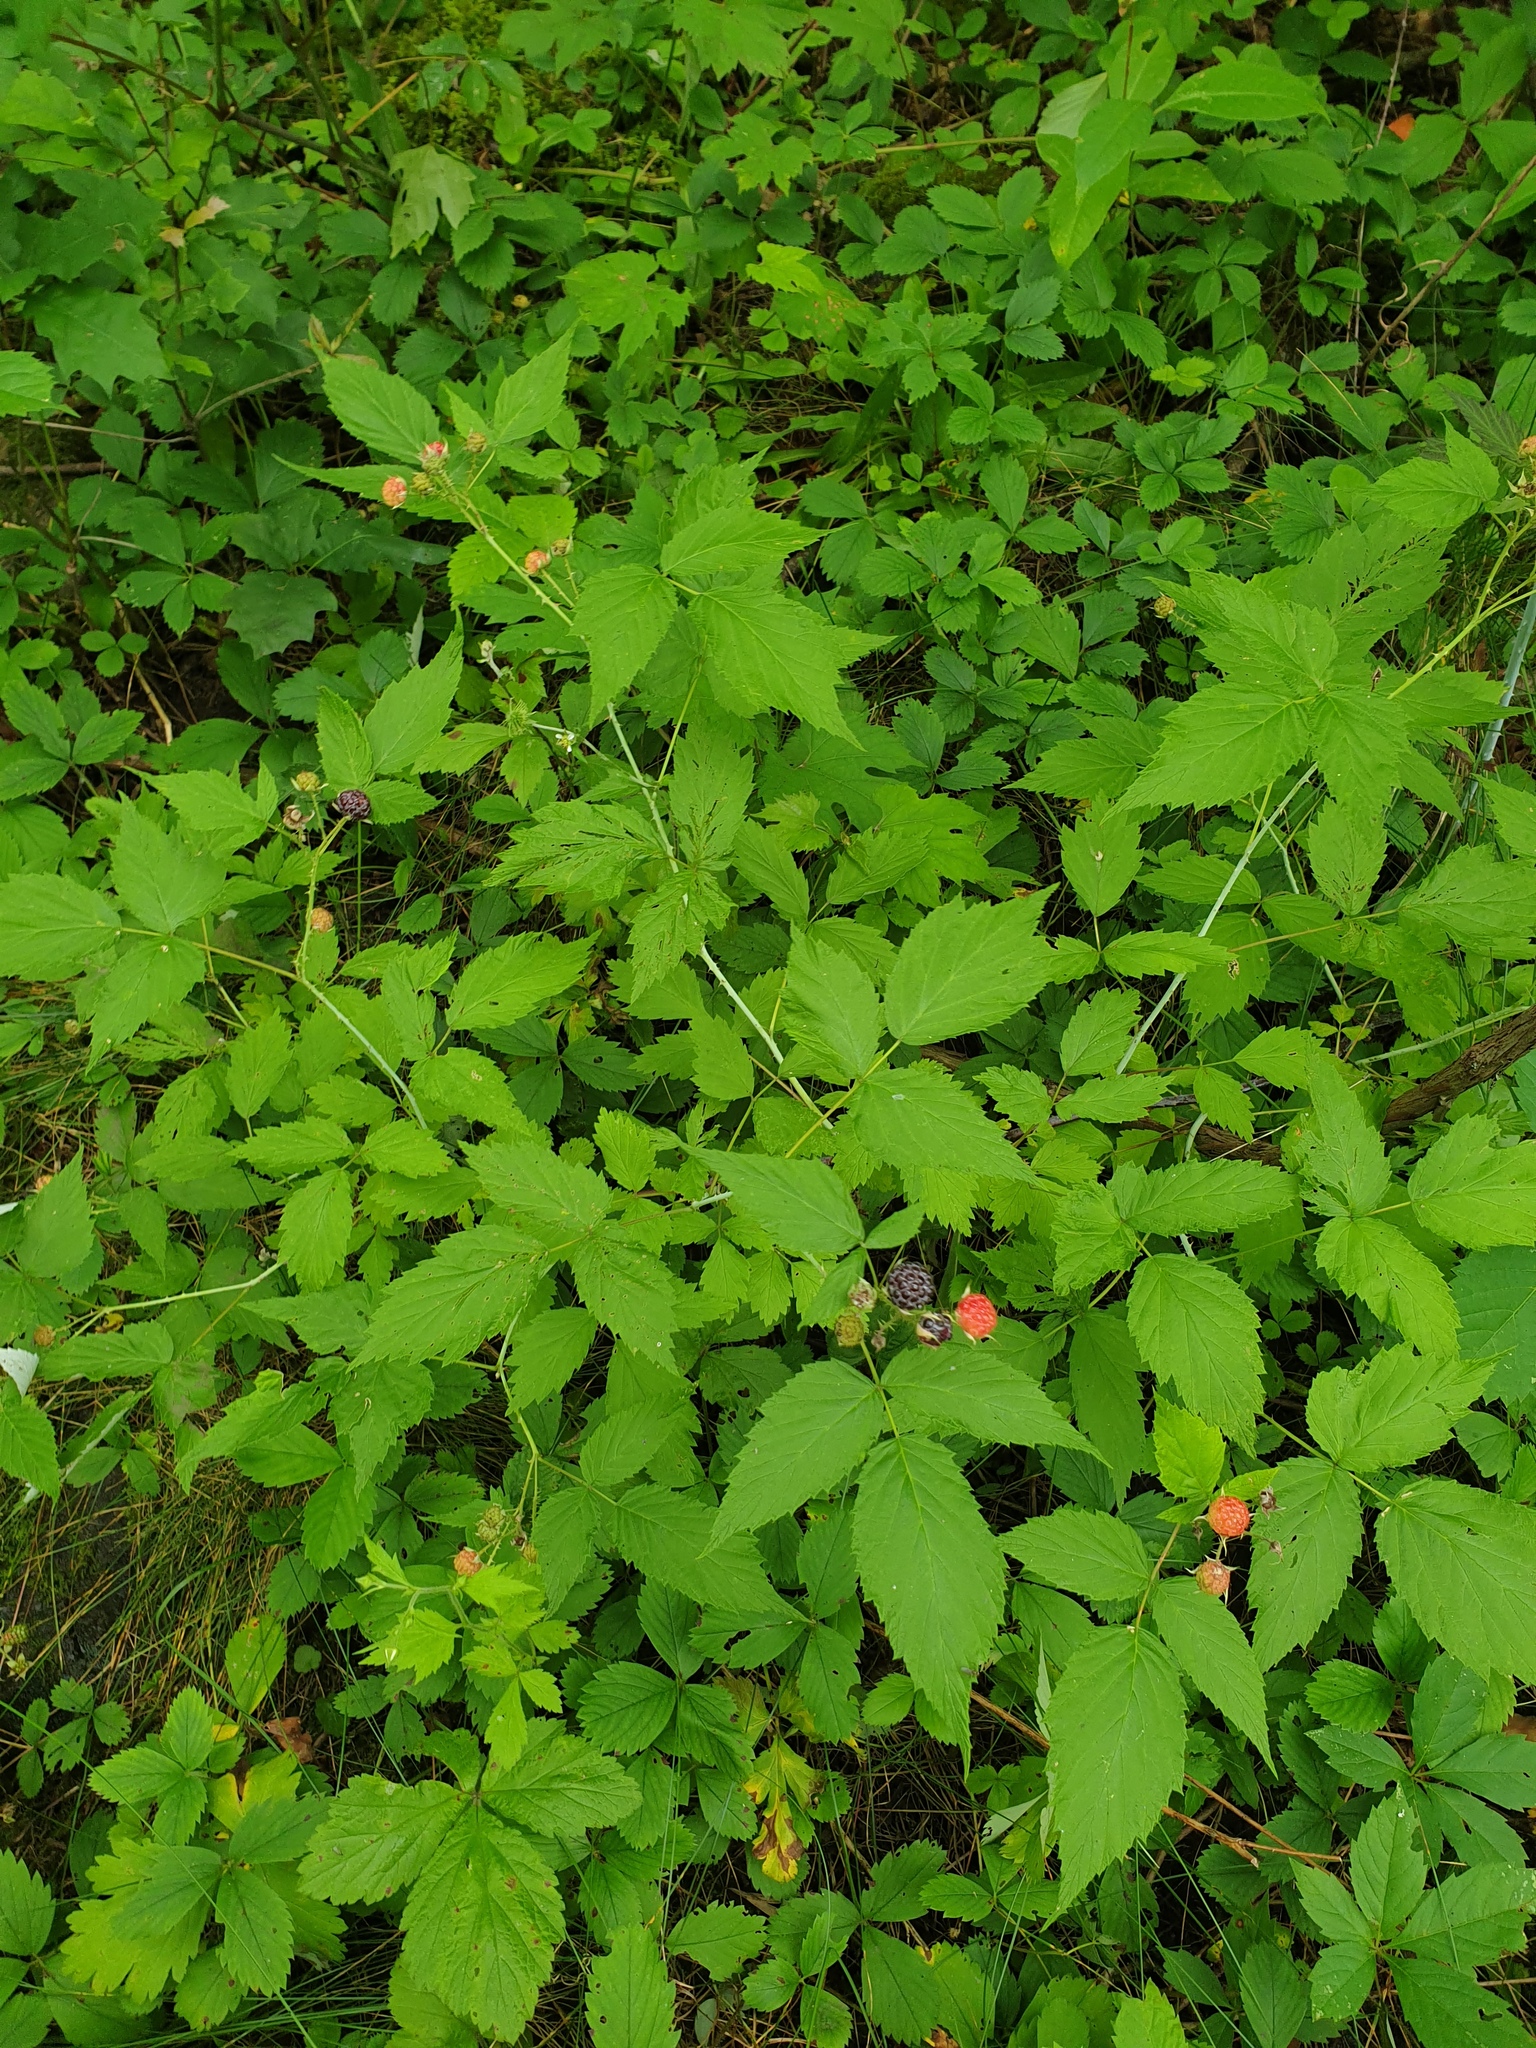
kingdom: Plantae
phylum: Tracheophyta
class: Magnoliopsida
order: Rosales
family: Rosaceae
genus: Fragaria
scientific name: Fragaria virginiana
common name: Thickleaved wild strawberry
